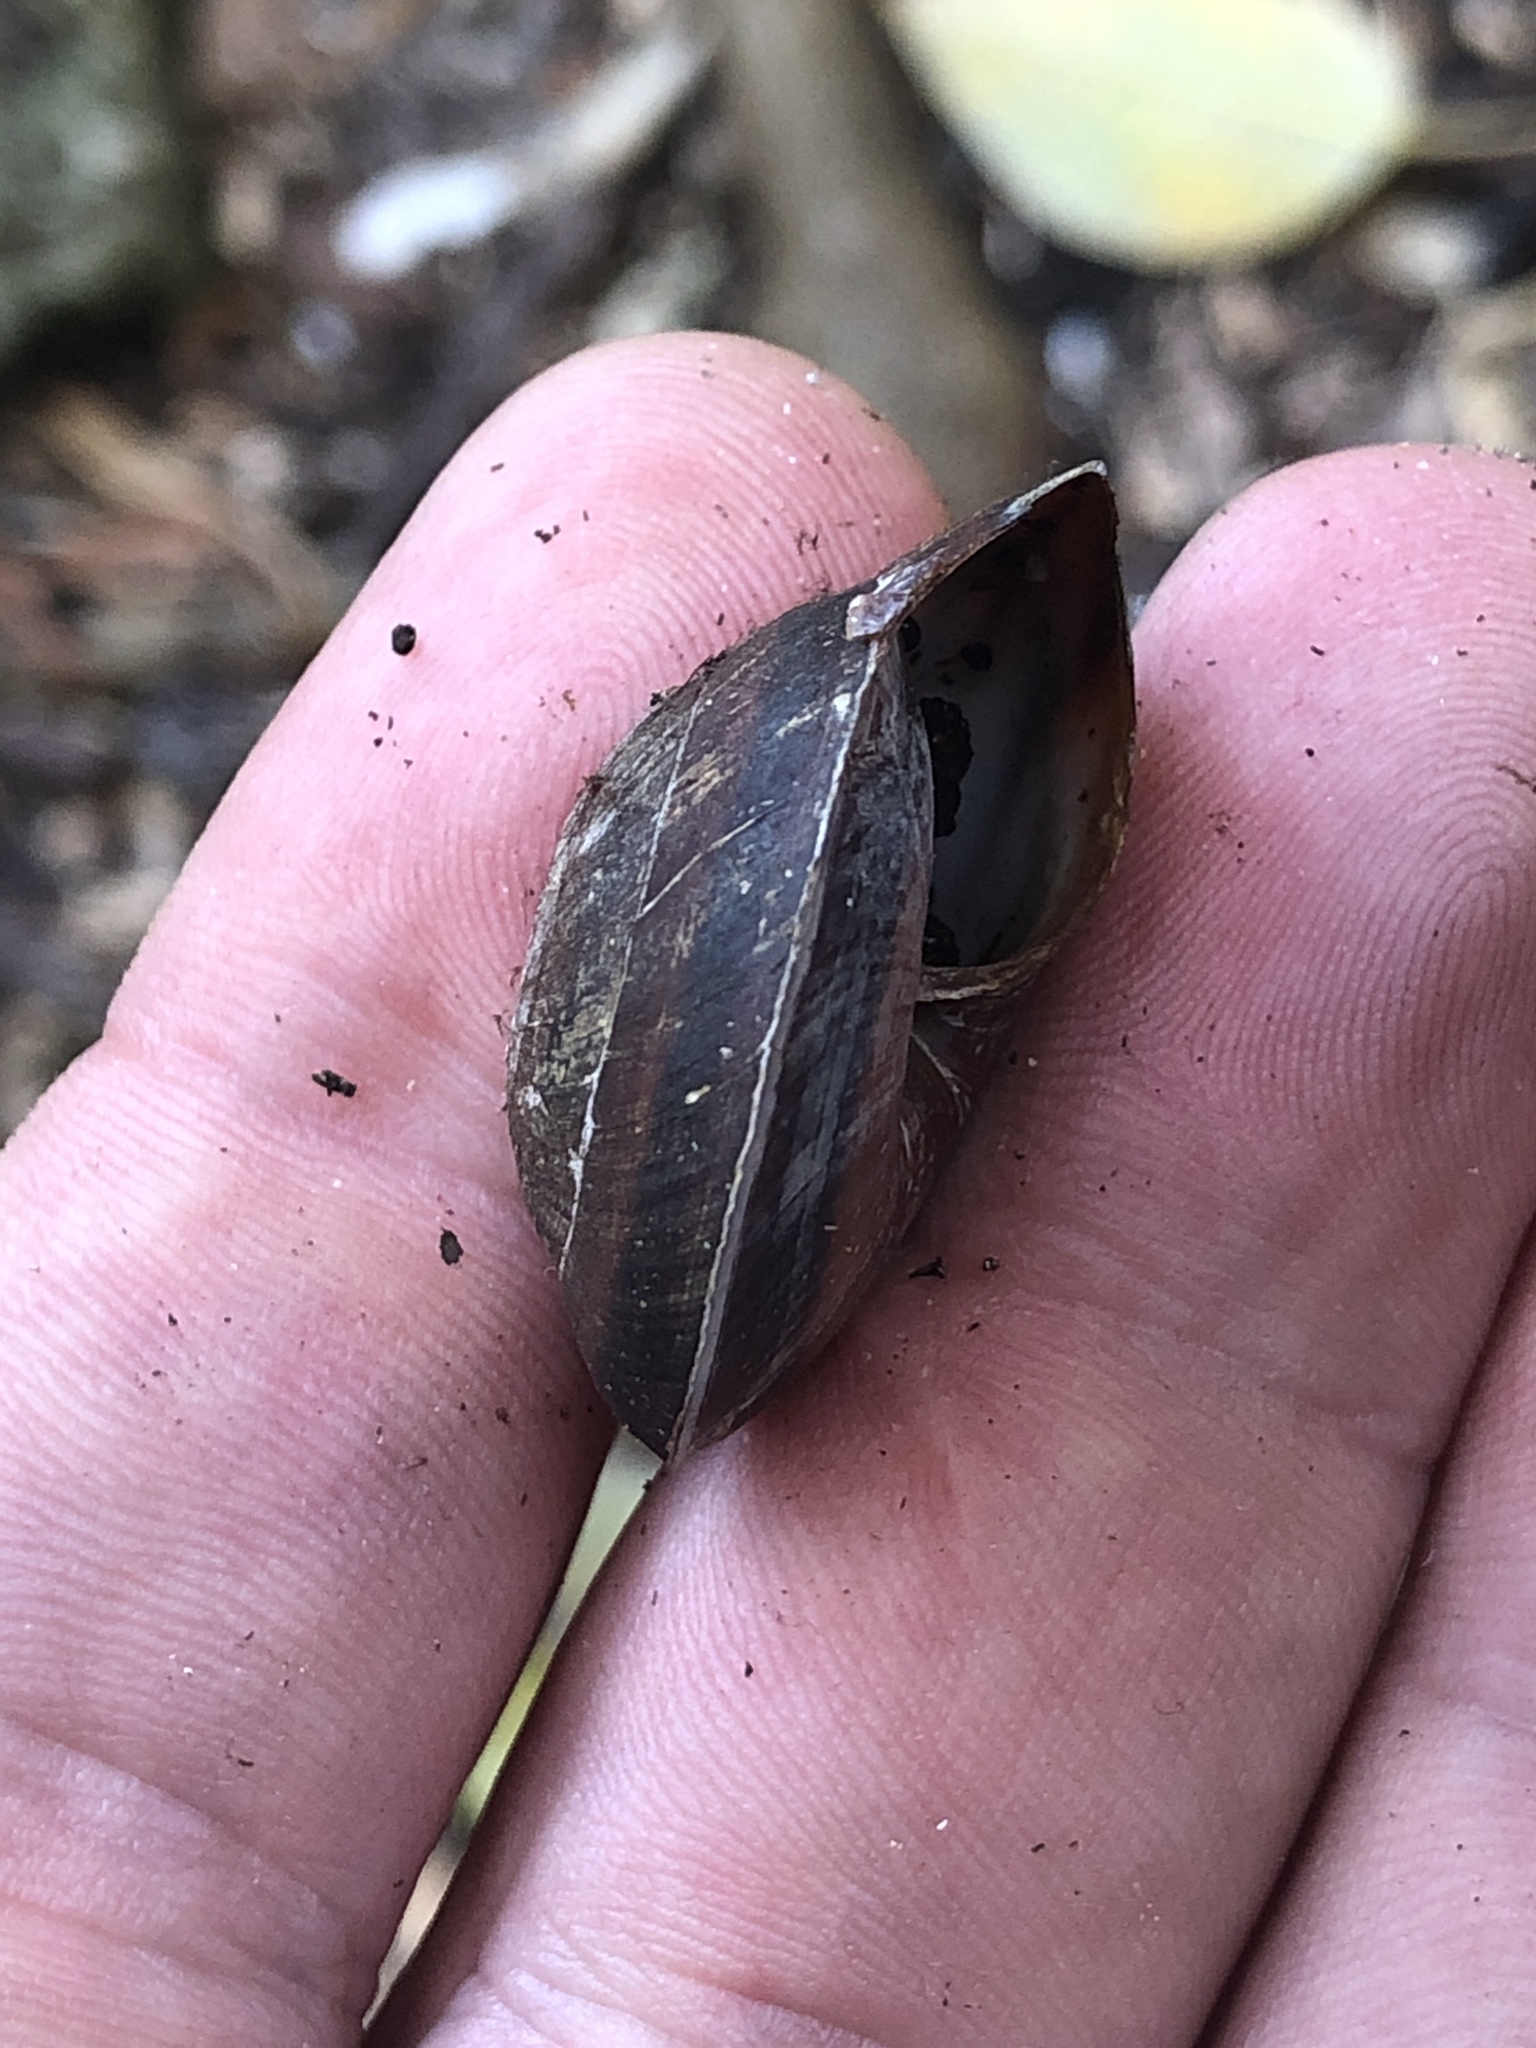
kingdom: Animalia
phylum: Mollusca
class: Gastropoda
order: Stylommatophora
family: Solaropsidae
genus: Caracolus
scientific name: Caracolus marginella
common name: Banded caracol
